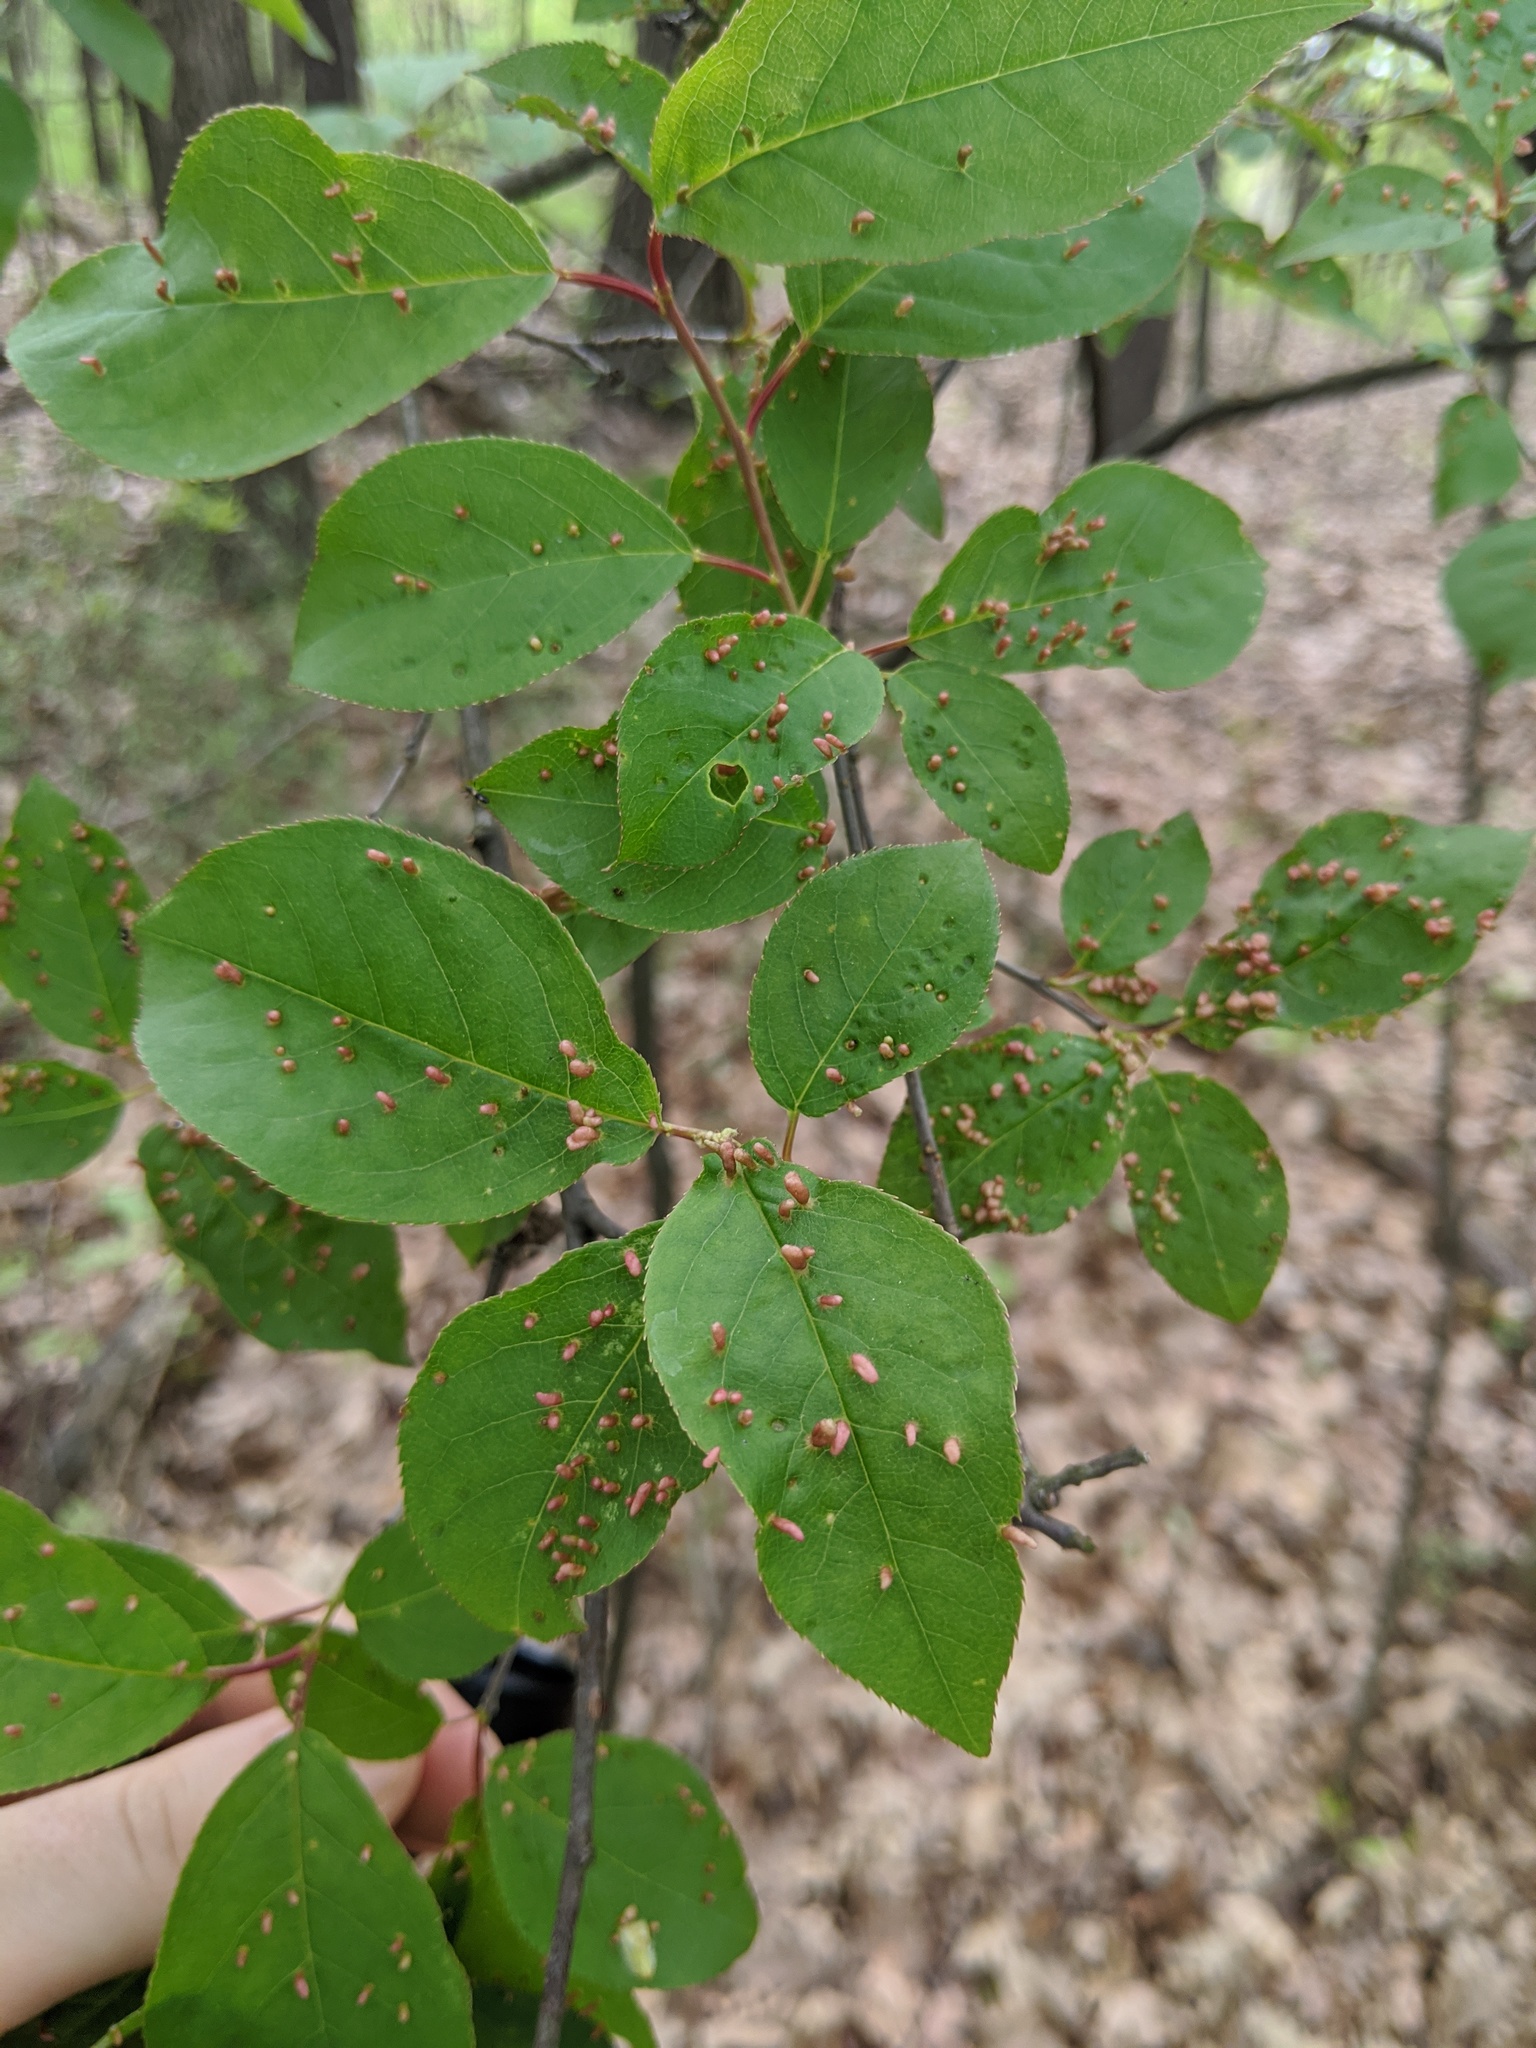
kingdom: Animalia
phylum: Arthropoda
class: Arachnida
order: Trombidiformes
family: Eriophyidae
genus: Eriophyes
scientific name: Eriophyes emarginatae
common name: Plum leaf gall mite
